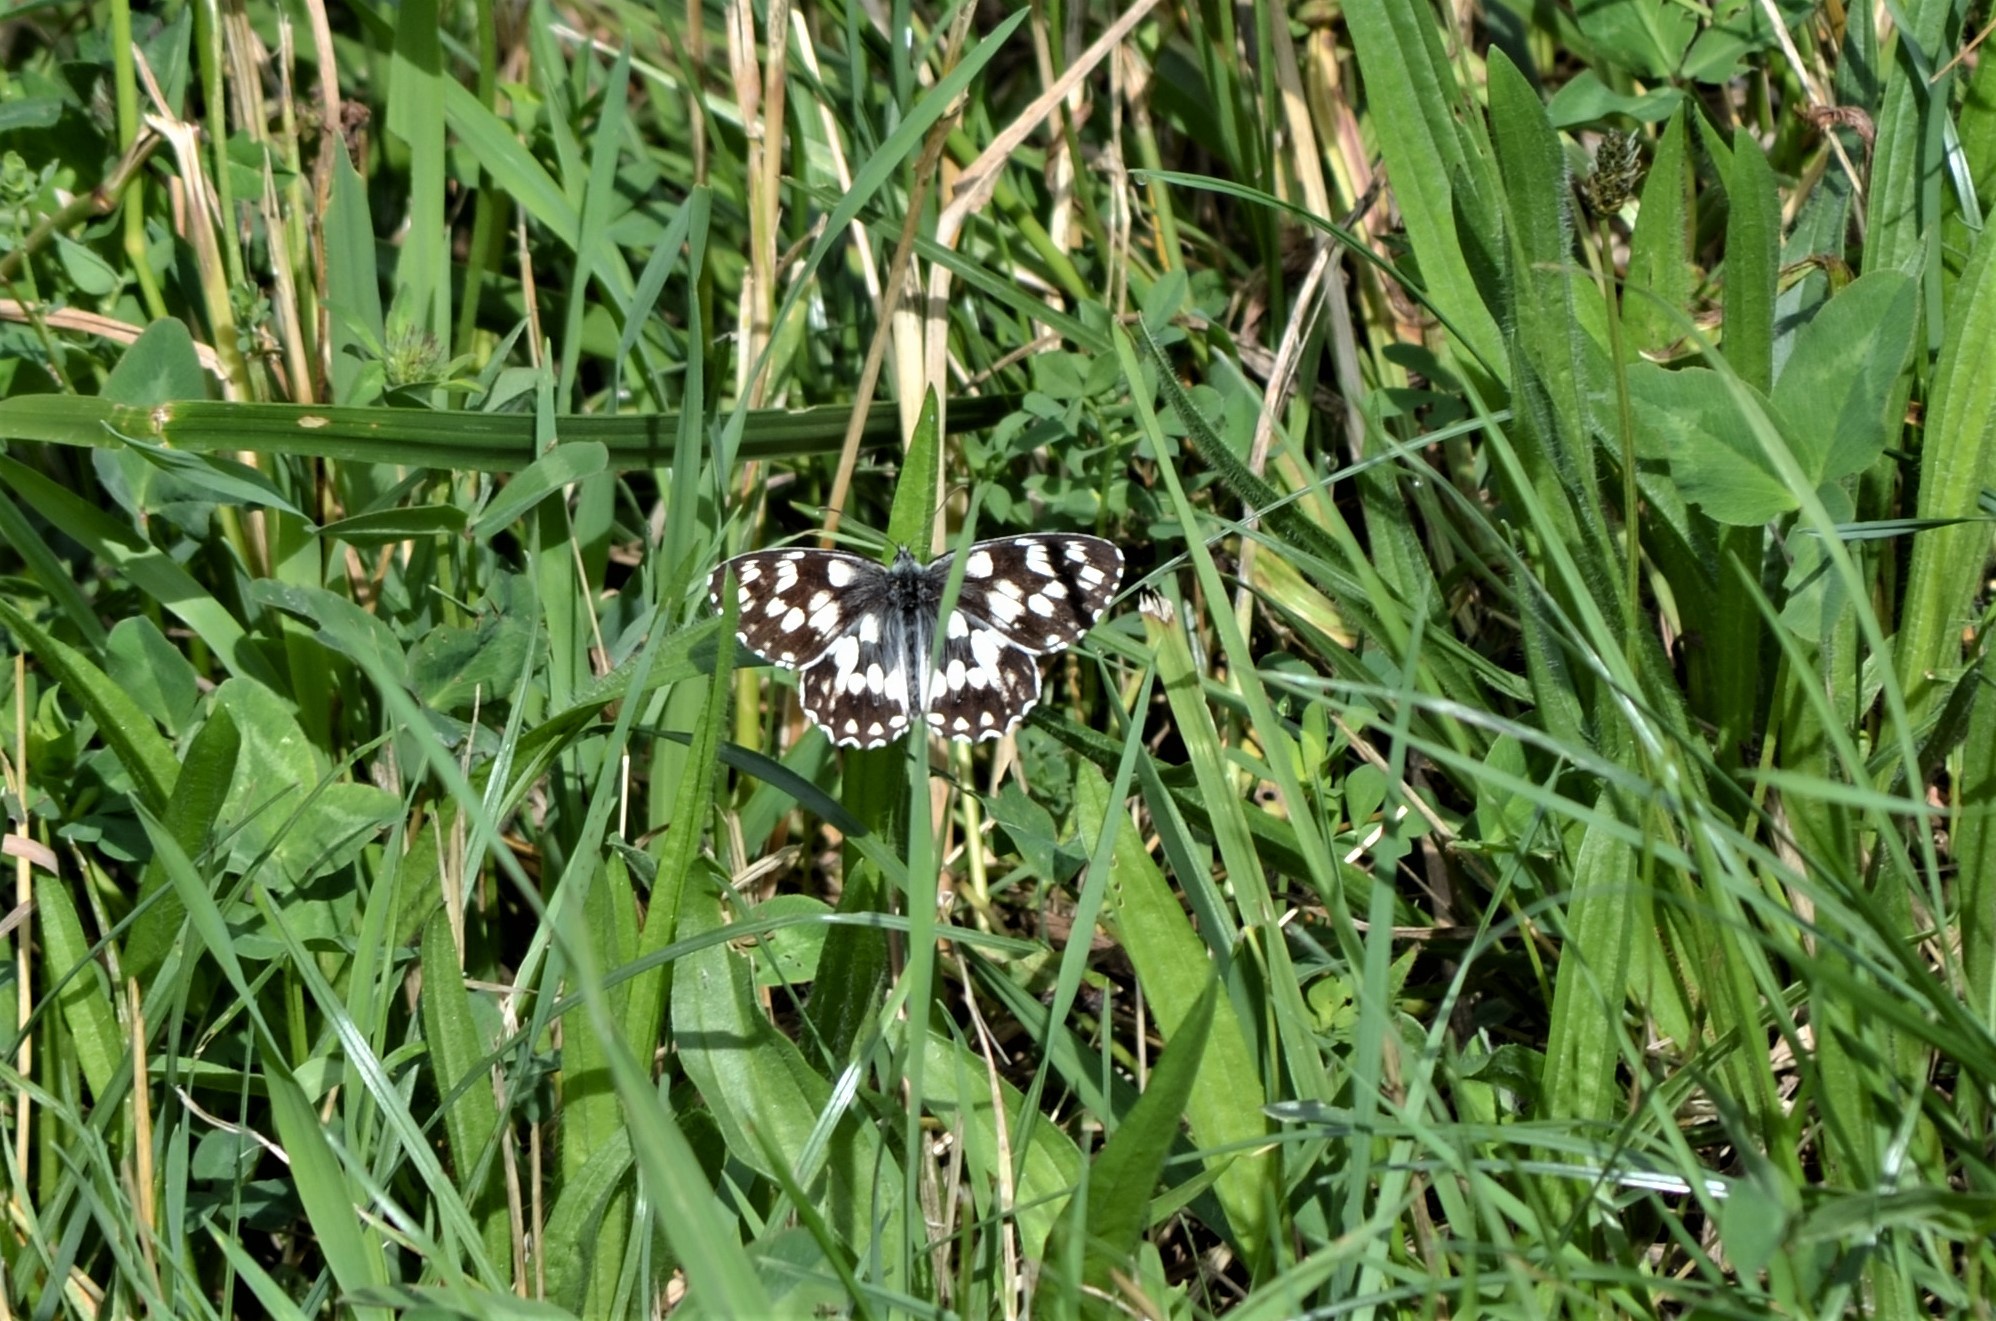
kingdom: Animalia
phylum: Arthropoda
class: Insecta
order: Lepidoptera
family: Nymphalidae
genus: Melanargia
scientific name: Melanargia galathea
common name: Marbled white
